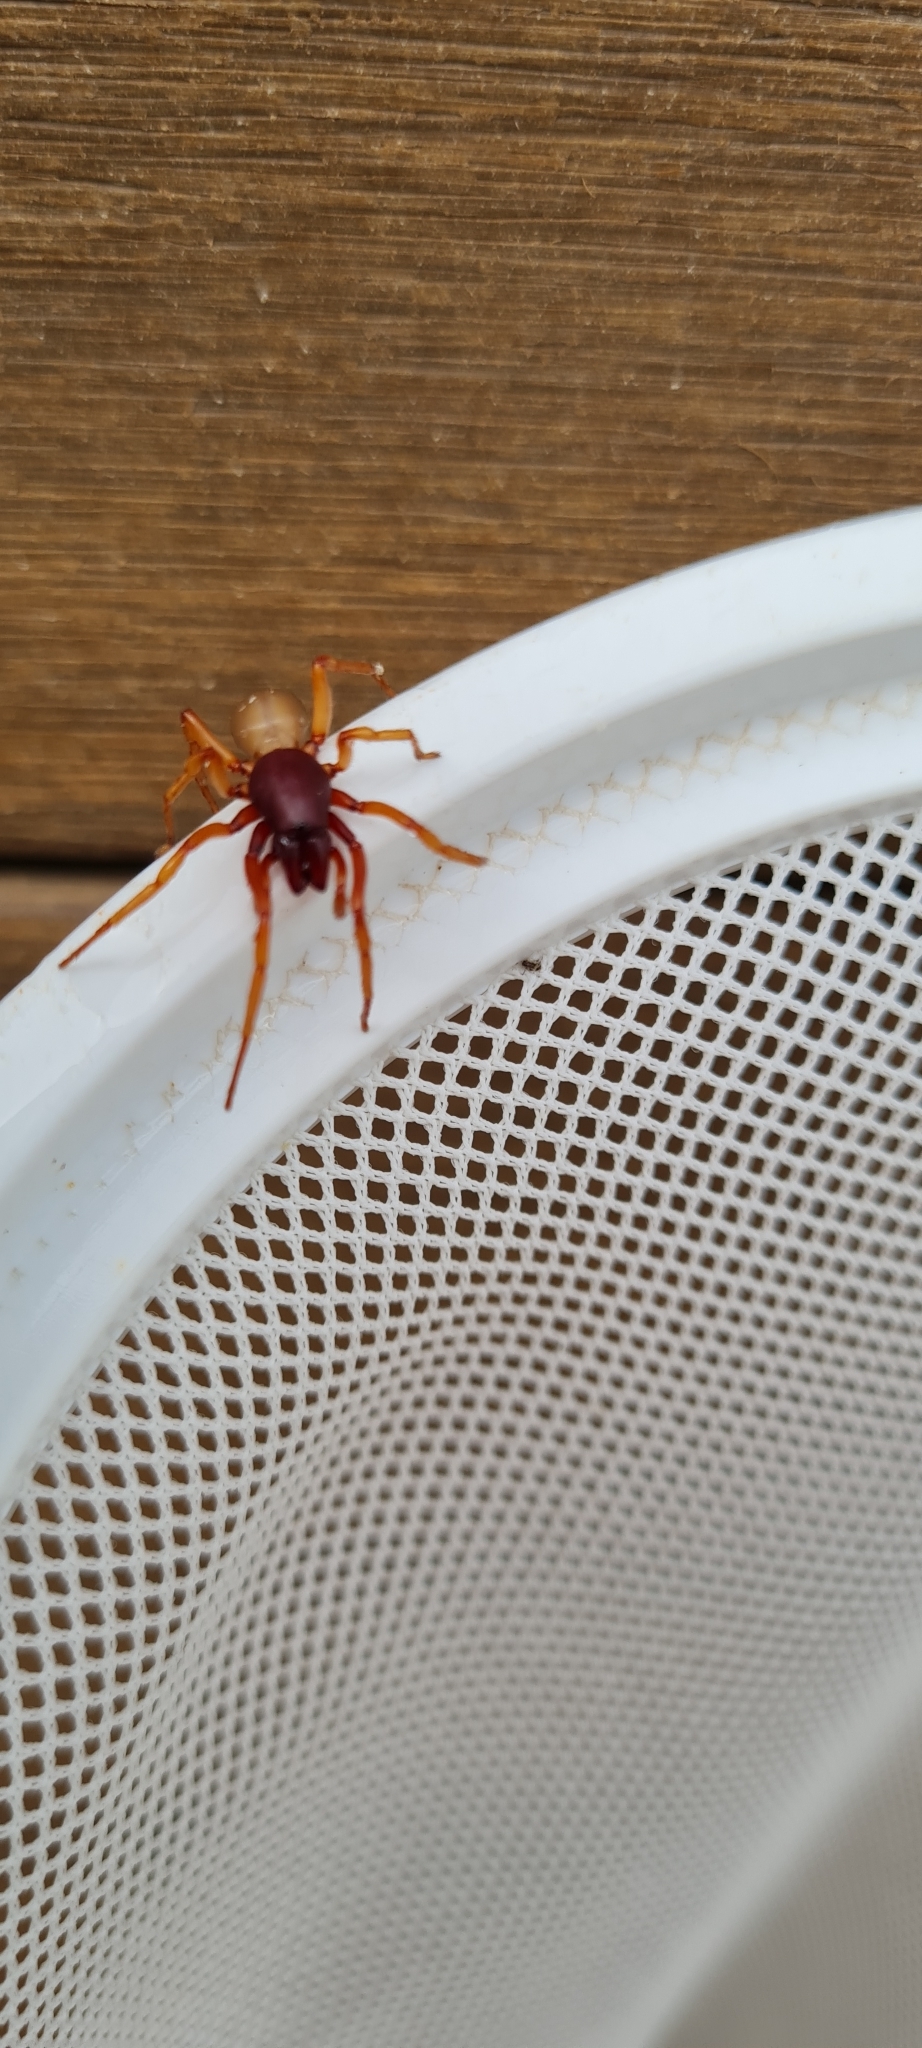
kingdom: Animalia
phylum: Arthropoda
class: Arachnida
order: Araneae
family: Dysderidae
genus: Dysdera
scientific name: Dysdera crocata
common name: Woodlouse spider
